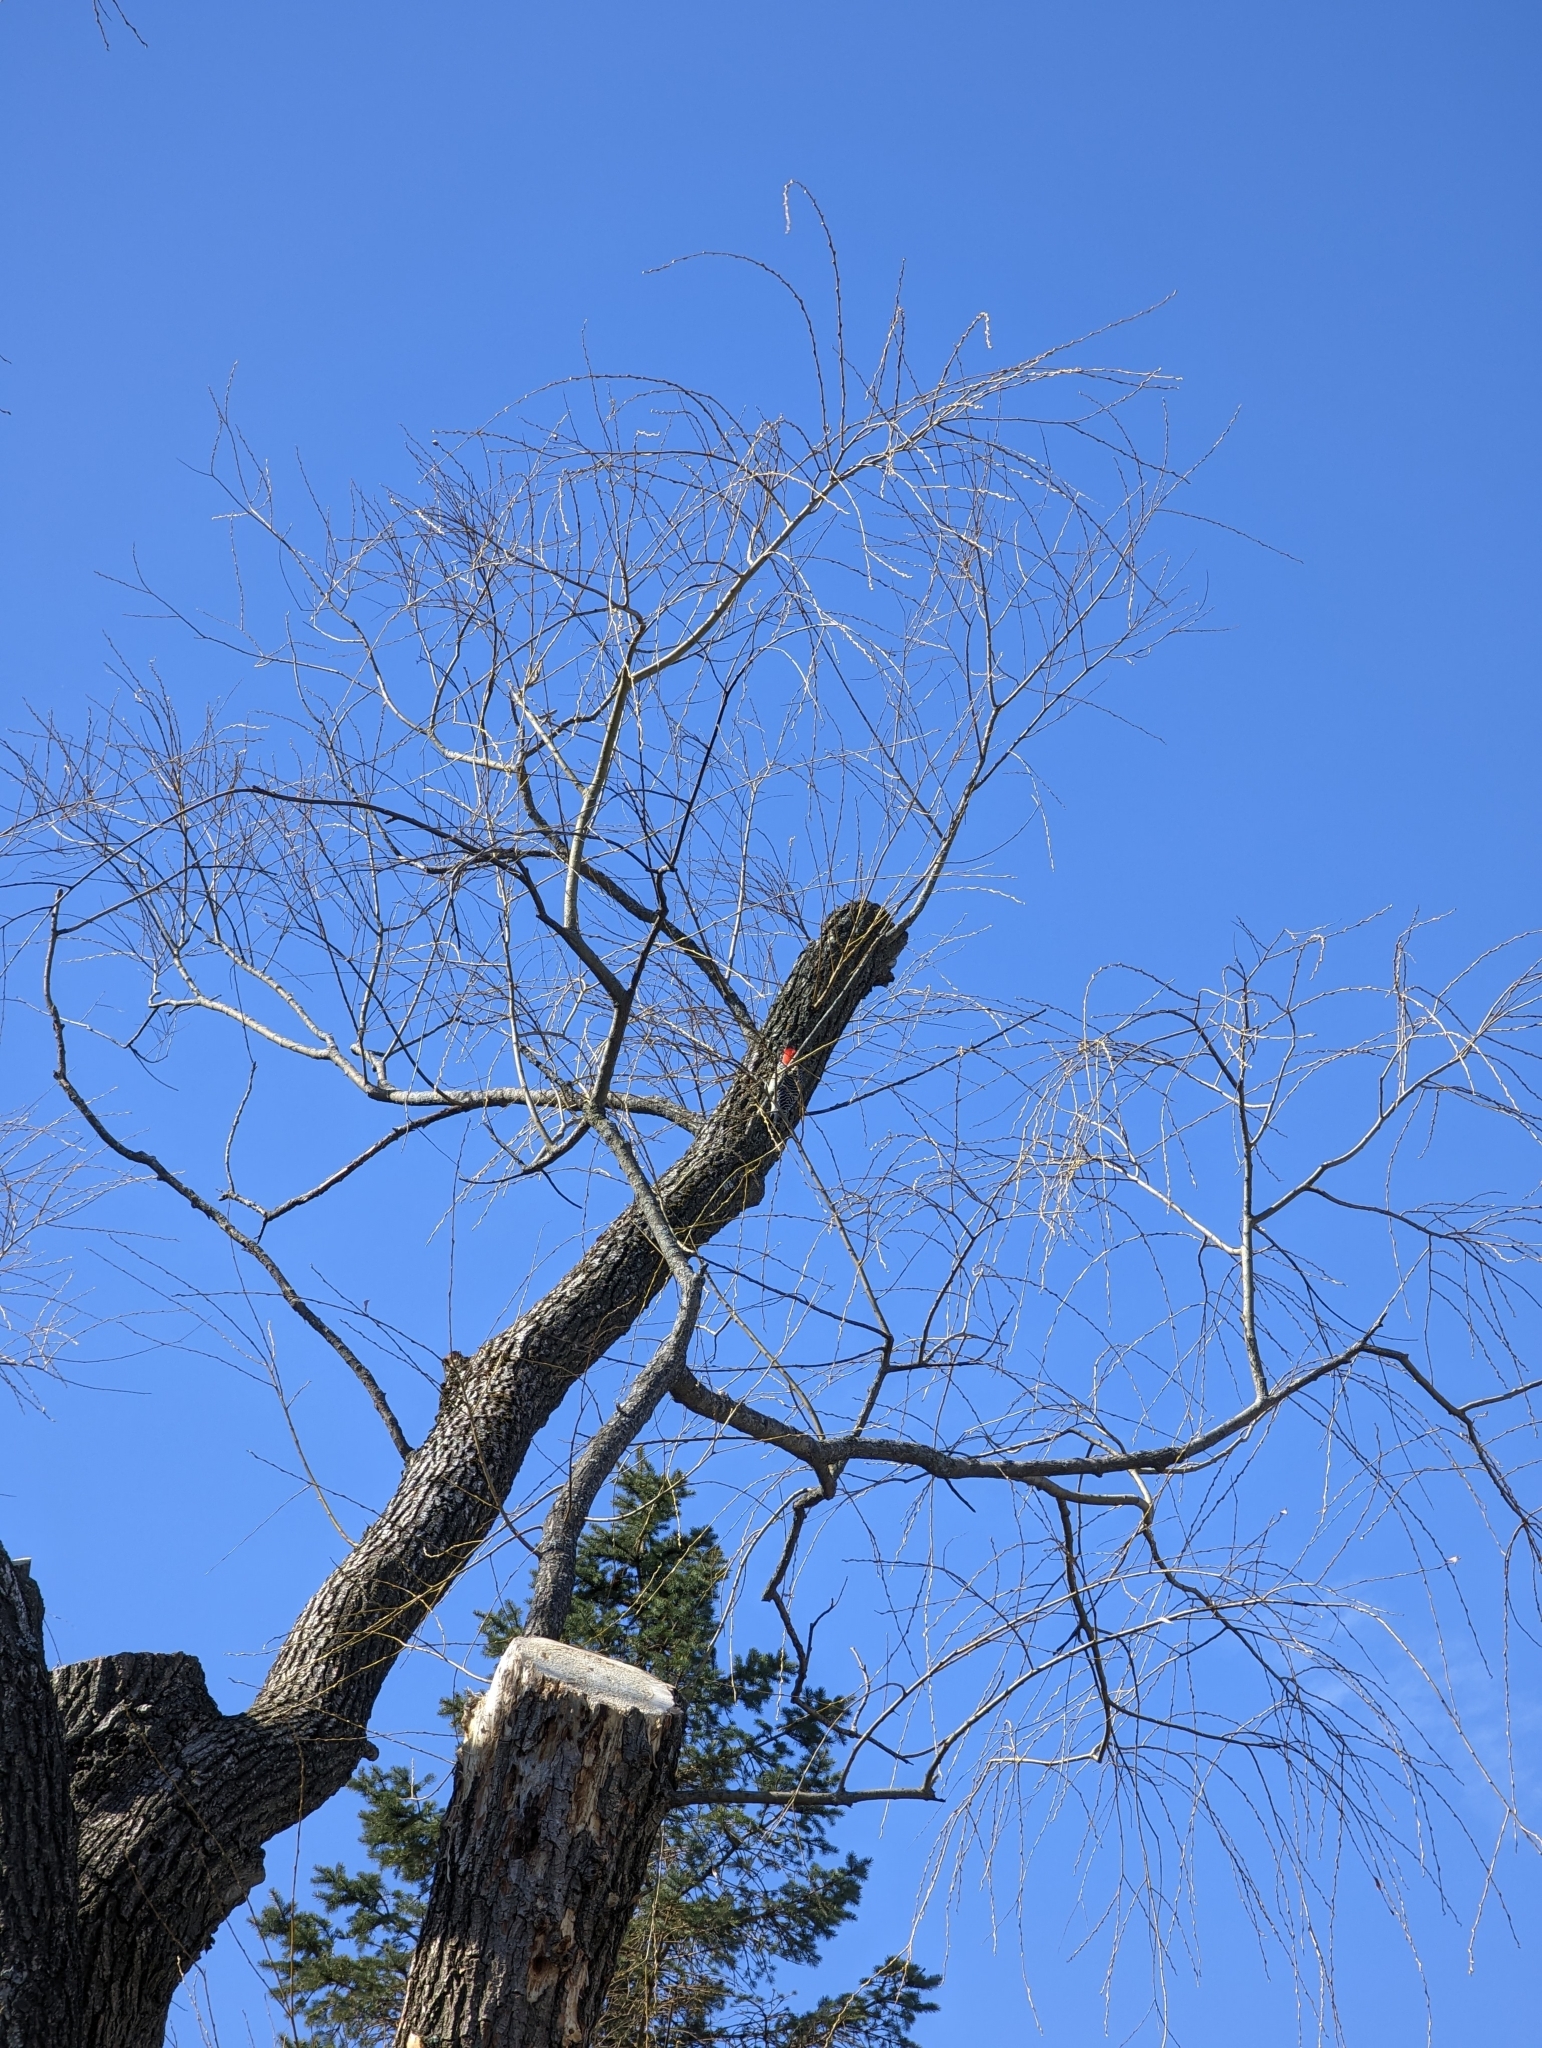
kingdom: Animalia
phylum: Chordata
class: Aves
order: Piciformes
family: Picidae
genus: Melanerpes
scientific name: Melanerpes carolinus
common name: Red-bellied woodpecker
